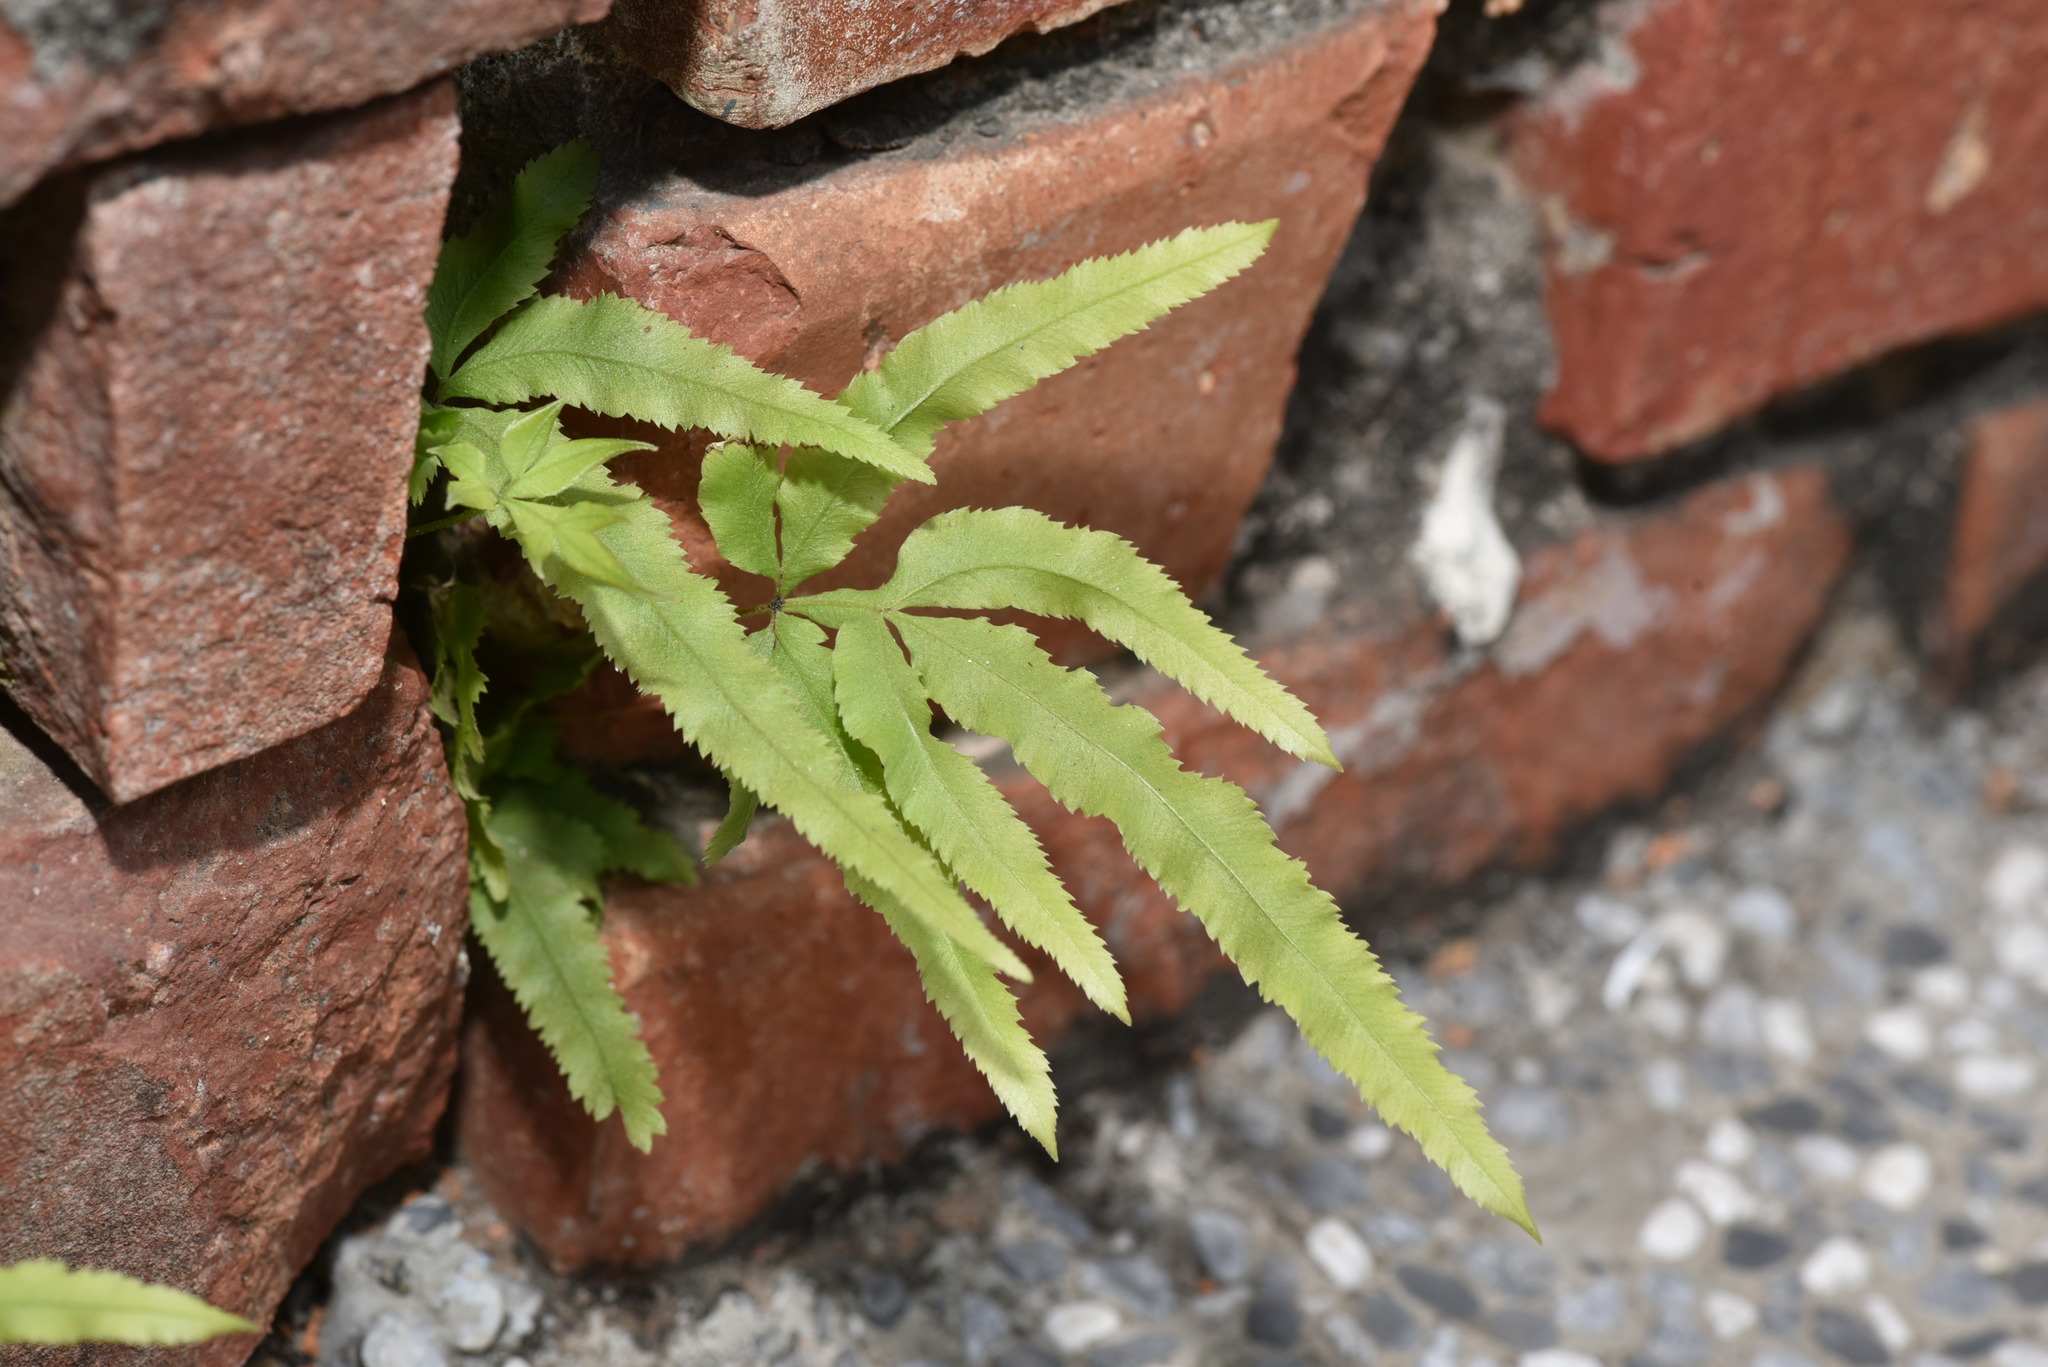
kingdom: Plantae
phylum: Tracheophyta
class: Polypodiopsida
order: Polypodiales
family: Pteridaceae
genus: Pteris
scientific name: Pteris multifida
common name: Spider brake
